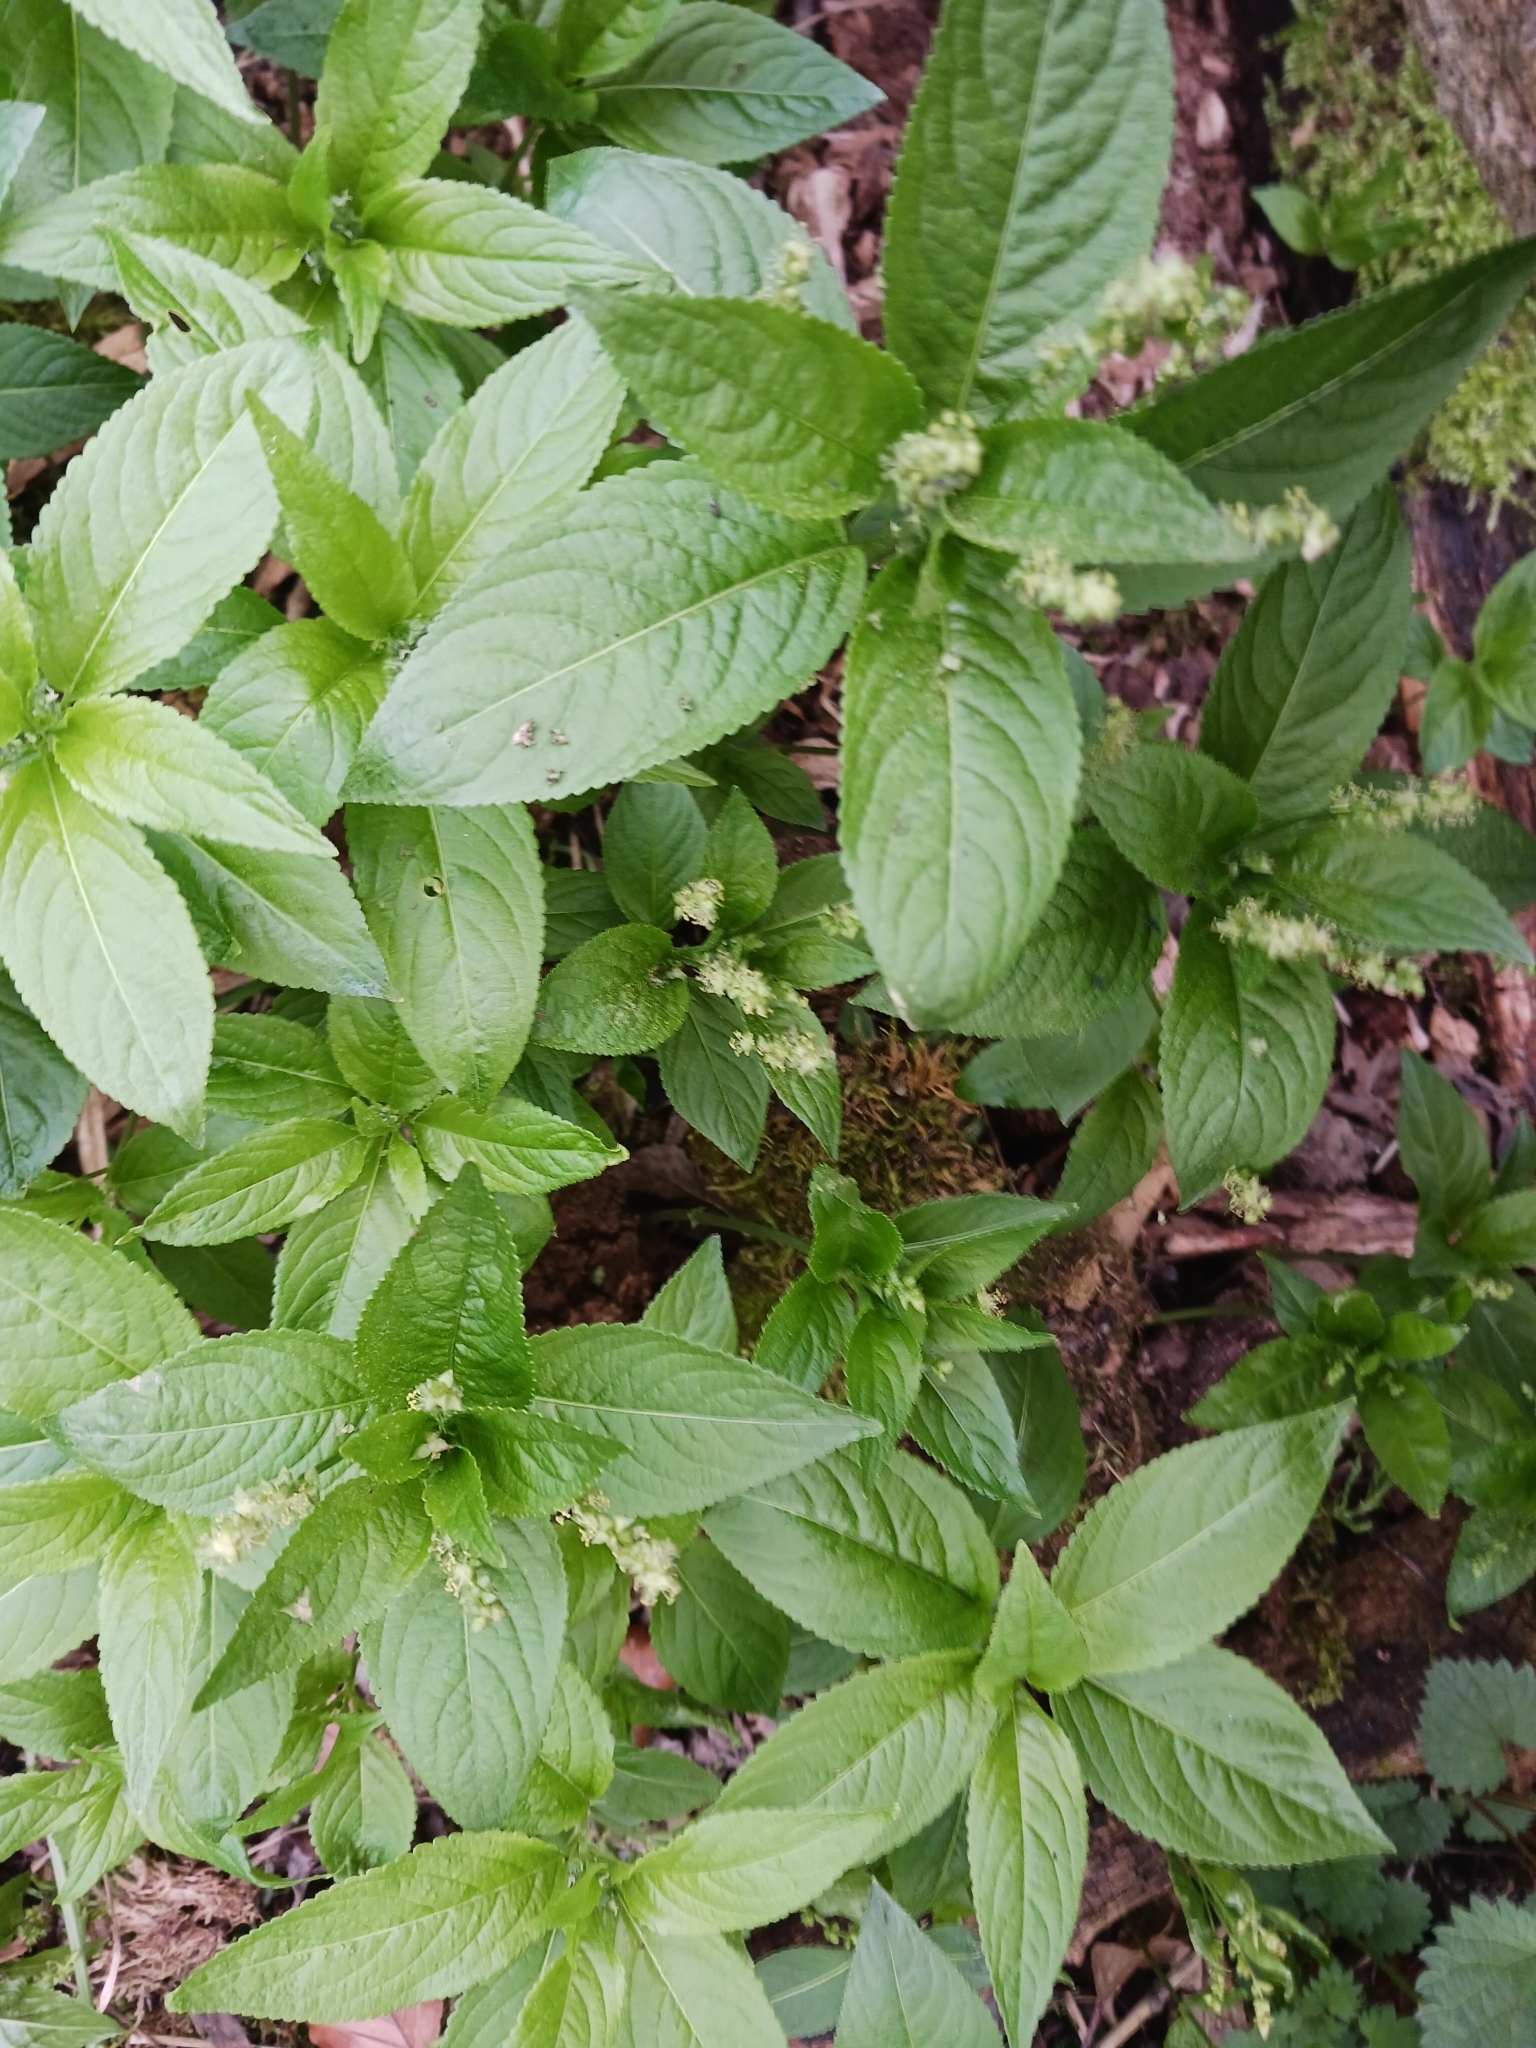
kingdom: Plantae
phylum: Tracheophyta
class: Magnoliopsida
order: Malpighiales
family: Euphorbiaceae
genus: Mercurialis
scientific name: Mercurialis perennis
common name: Dog mercury
